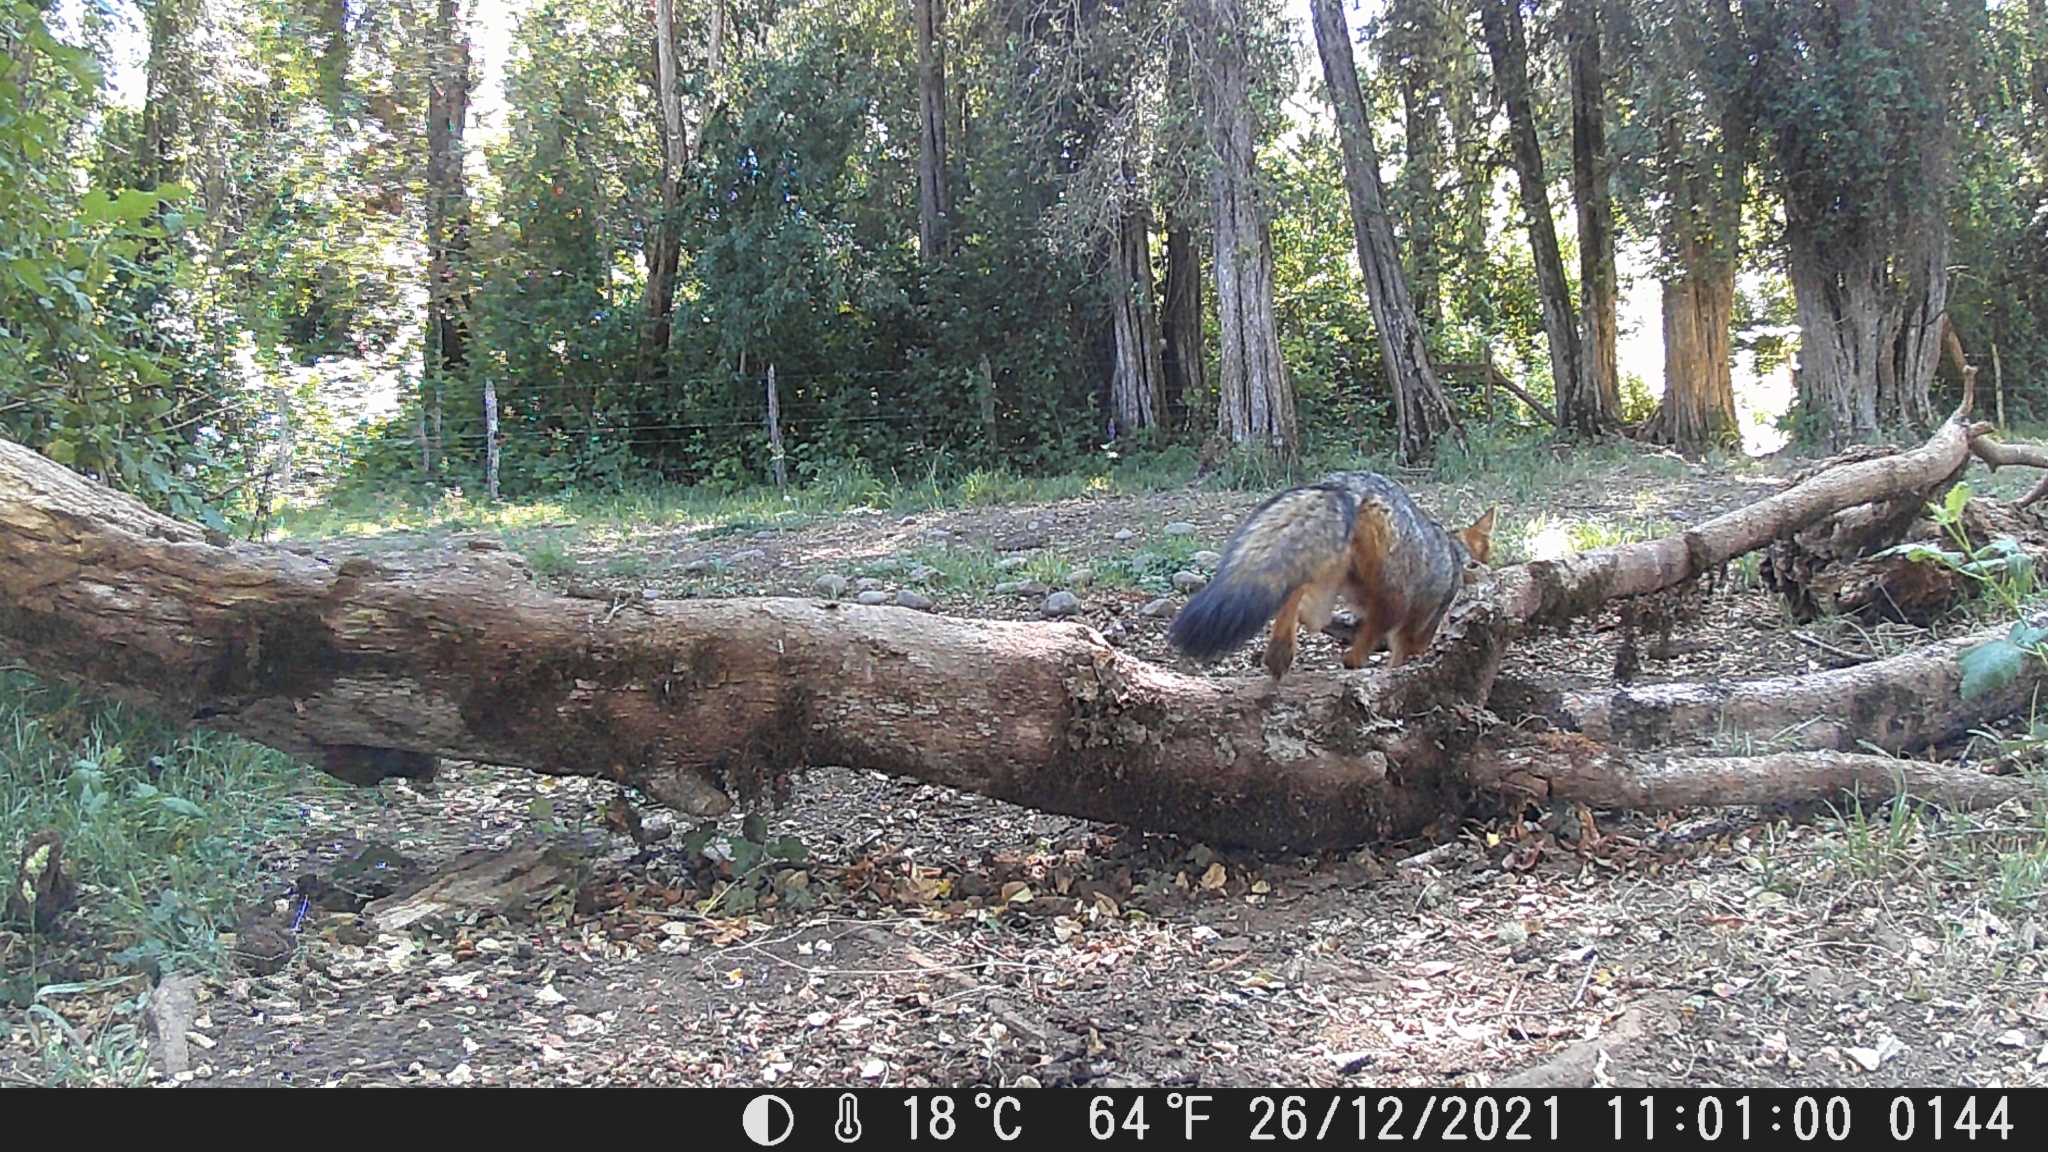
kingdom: Animalia
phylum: Chordata
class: Mammalia
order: Carnivora
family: Canidae
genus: Lycalopex
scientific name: Lycalopex culpaeus
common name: Culpeo
